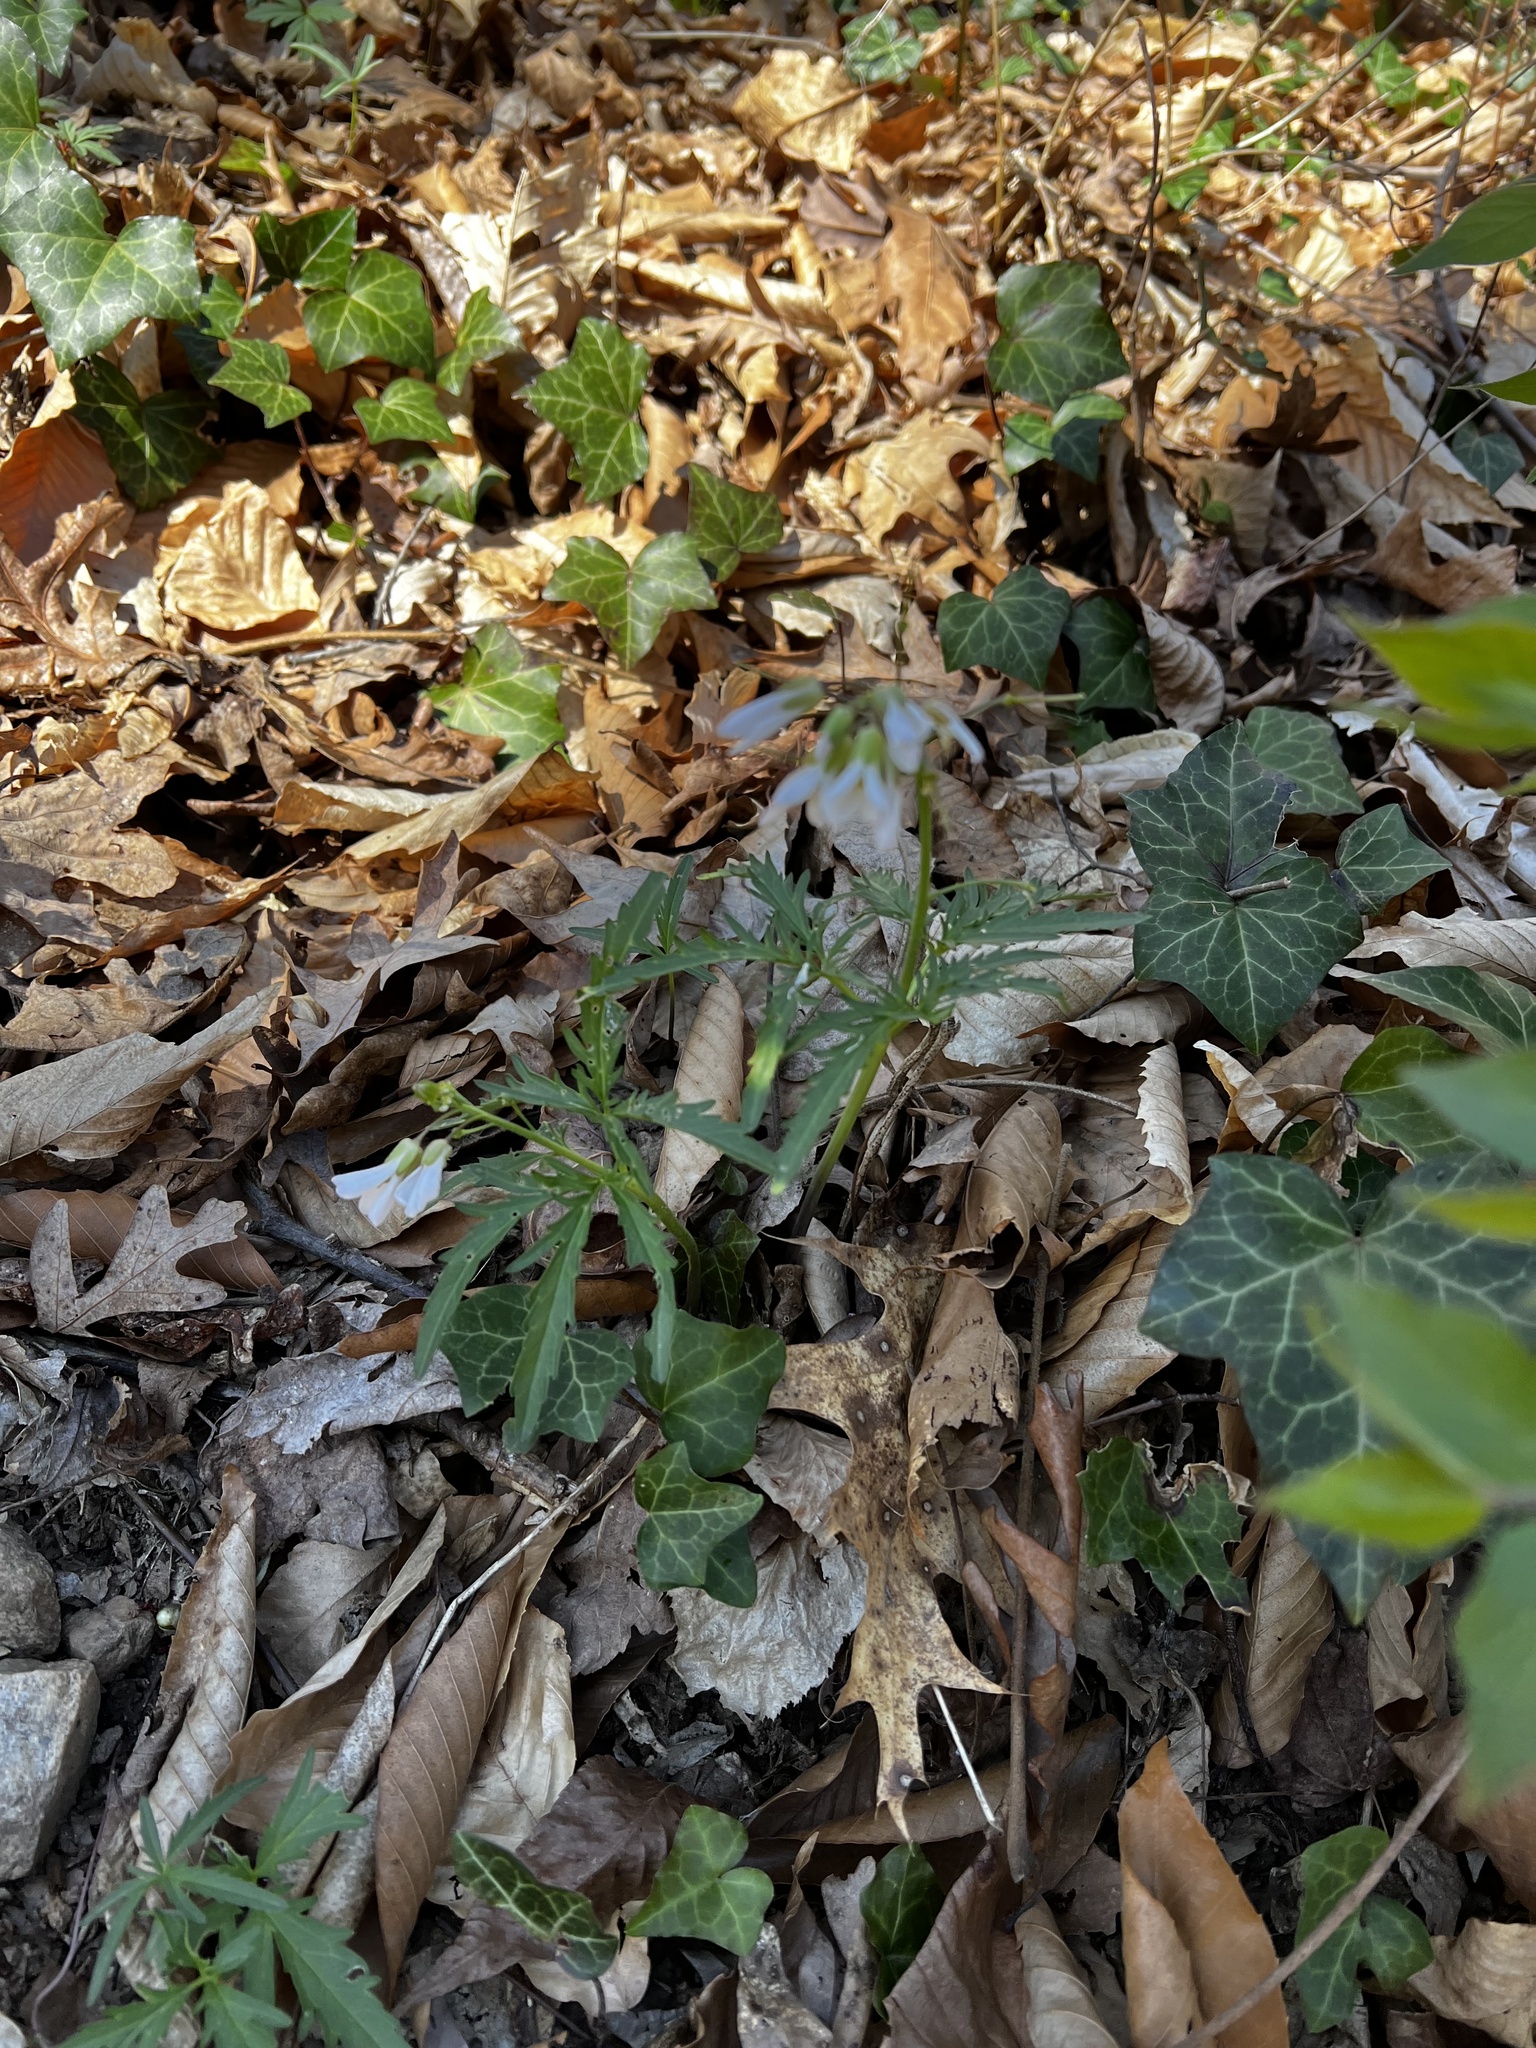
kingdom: Plantae
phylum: Tracheophyta
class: Magnoliopsida
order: Brassicales
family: Brassicaceae
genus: Cardamine
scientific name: Cardamine concatenata
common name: Cut-leaf toothcup
